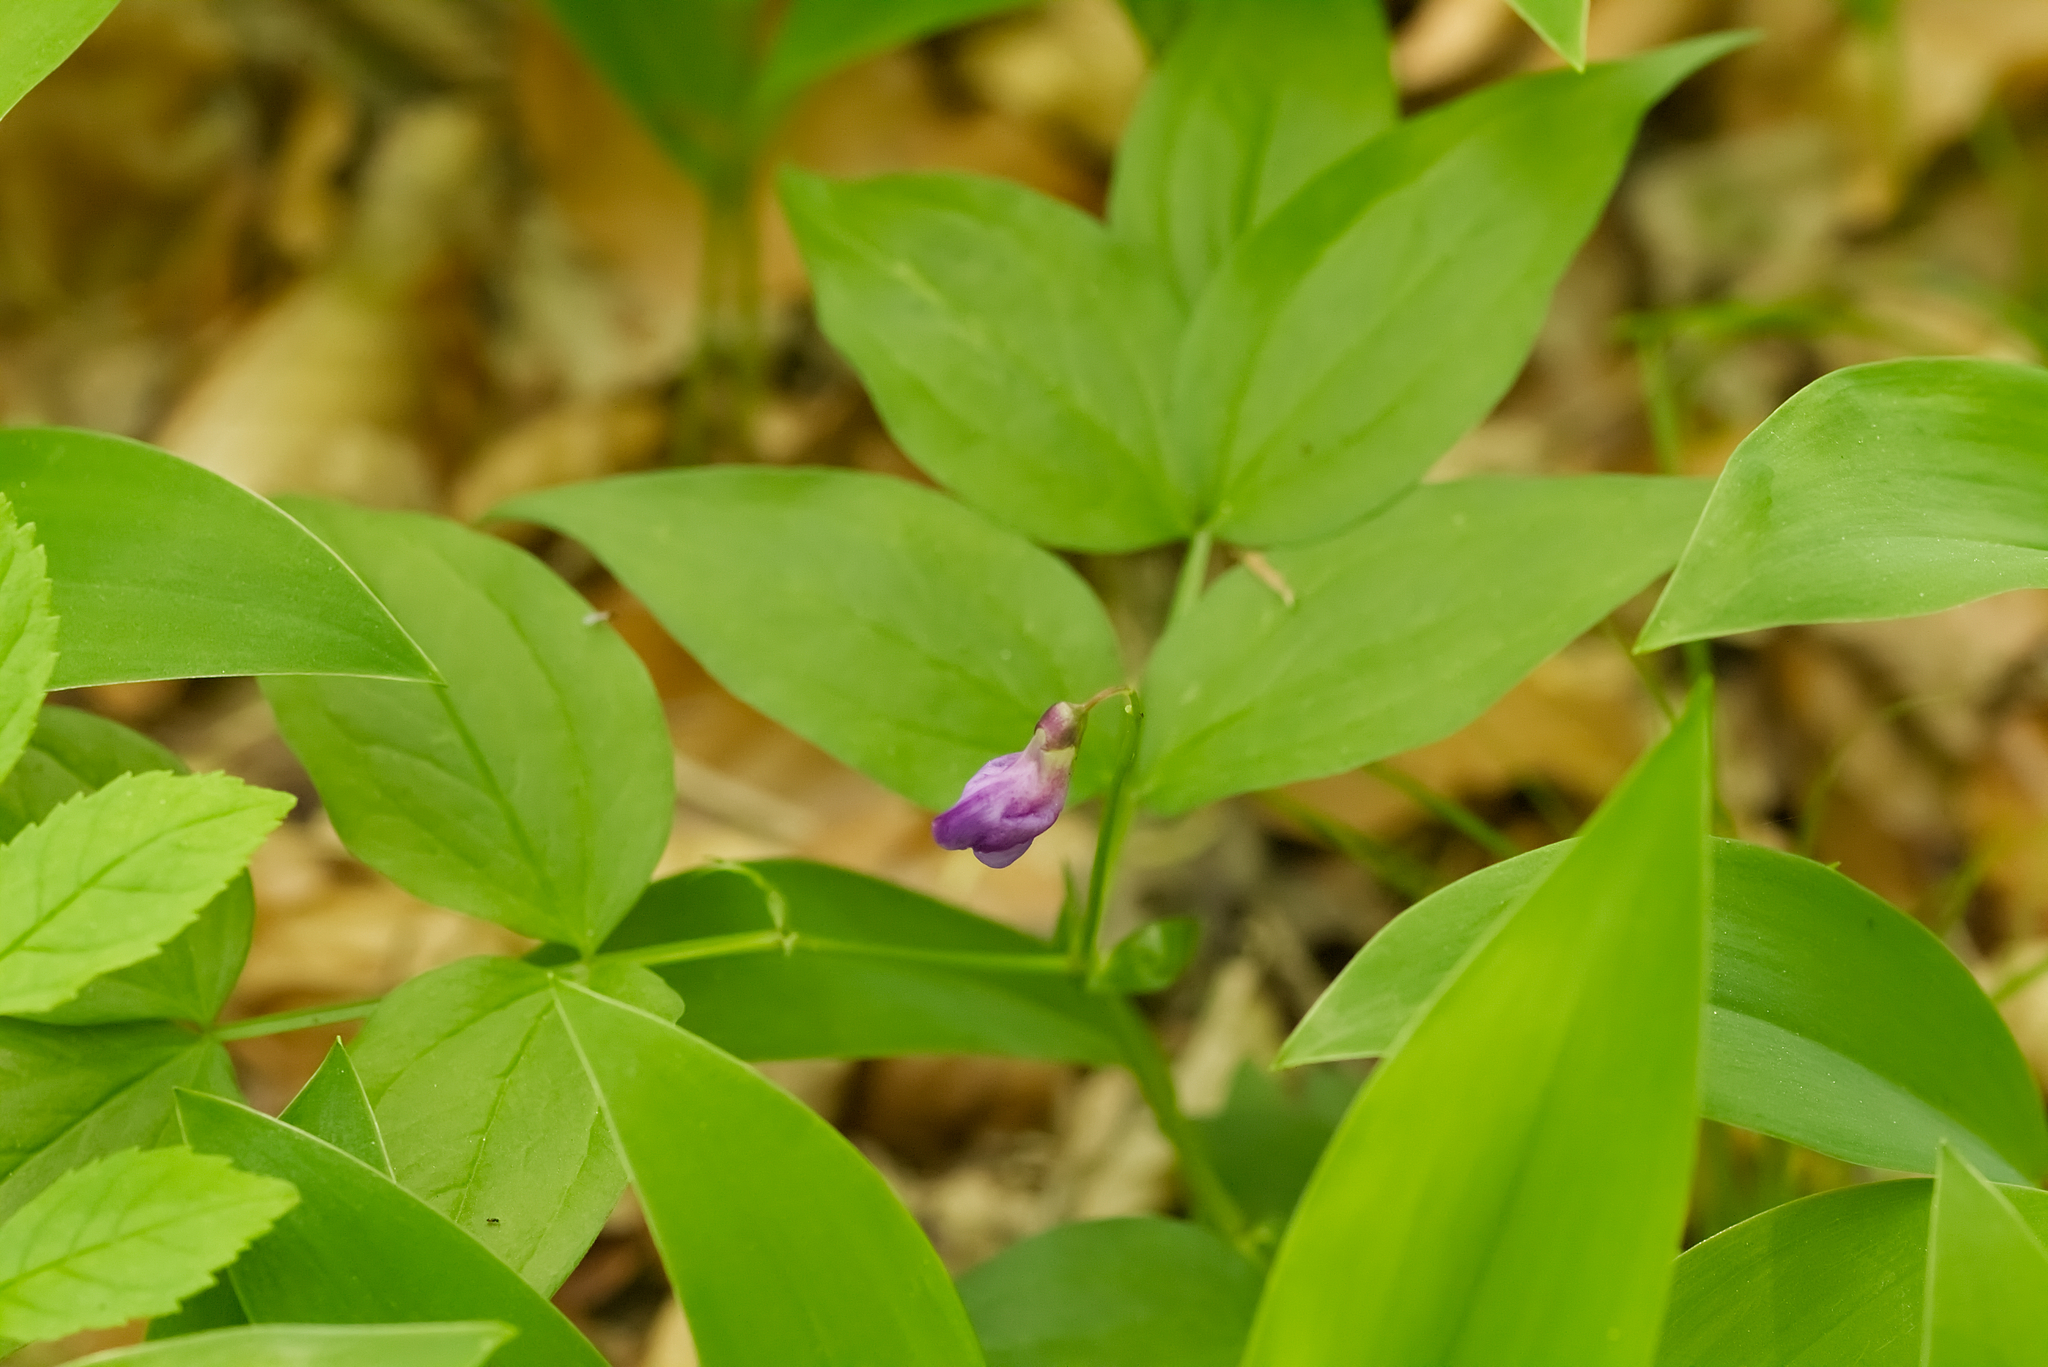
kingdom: Plantae
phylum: Tracheophyta
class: Magnoliopsida
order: Fabales
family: Fabaceae
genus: Lathyrus
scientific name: Lathyrus vernus
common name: Spring pea
